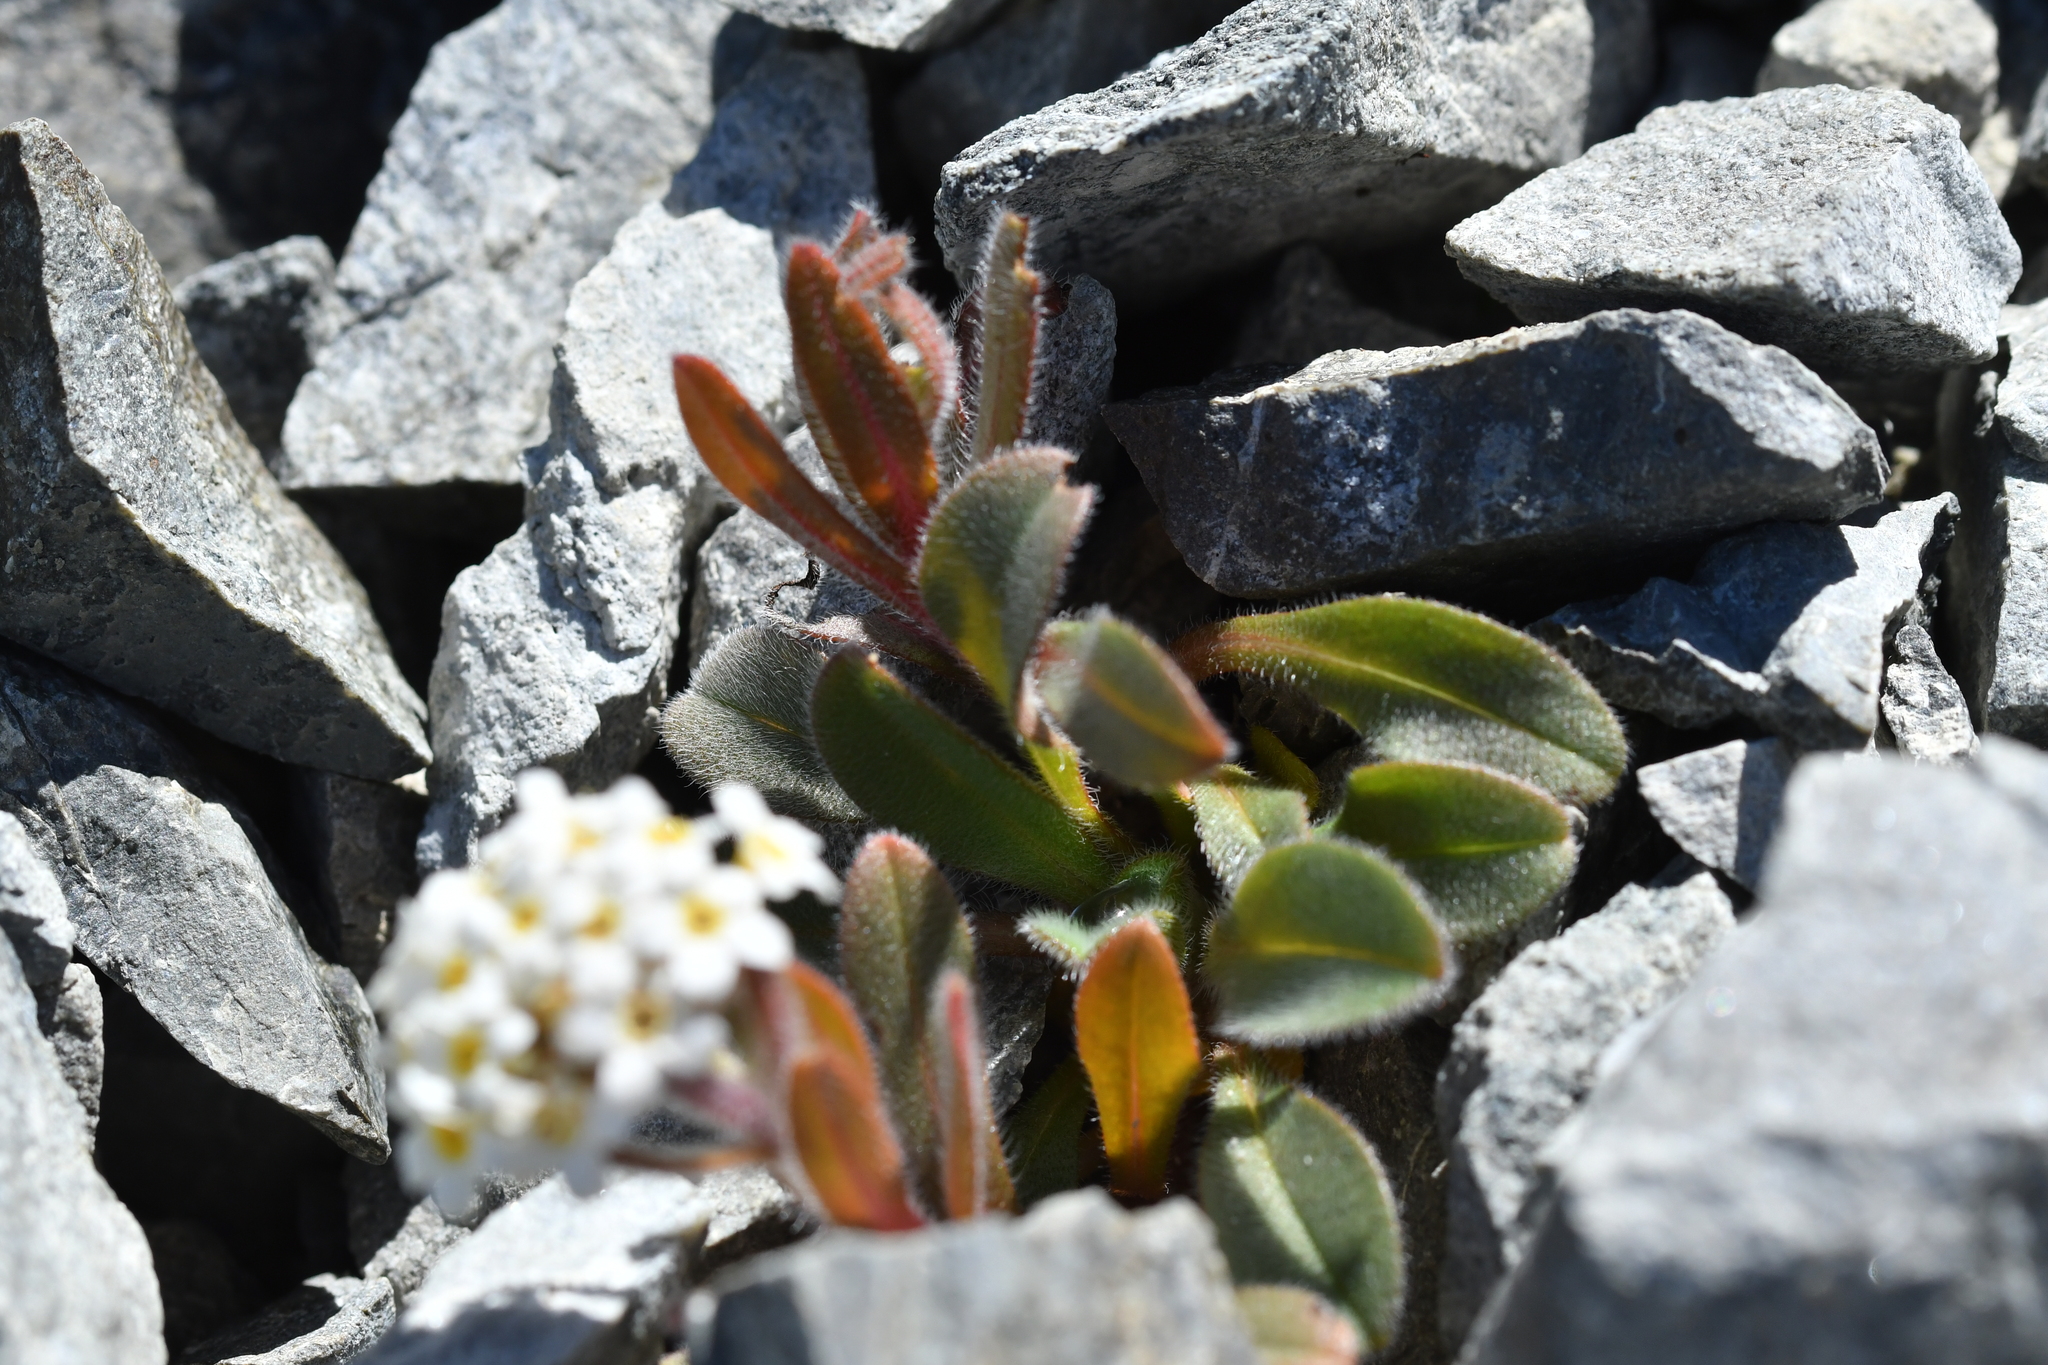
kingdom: Plantae
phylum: Tracheophyta
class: Magnoliopsida
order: Boraginales
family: Boraginaceae
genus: Myosotis
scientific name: Myosotis traversii
